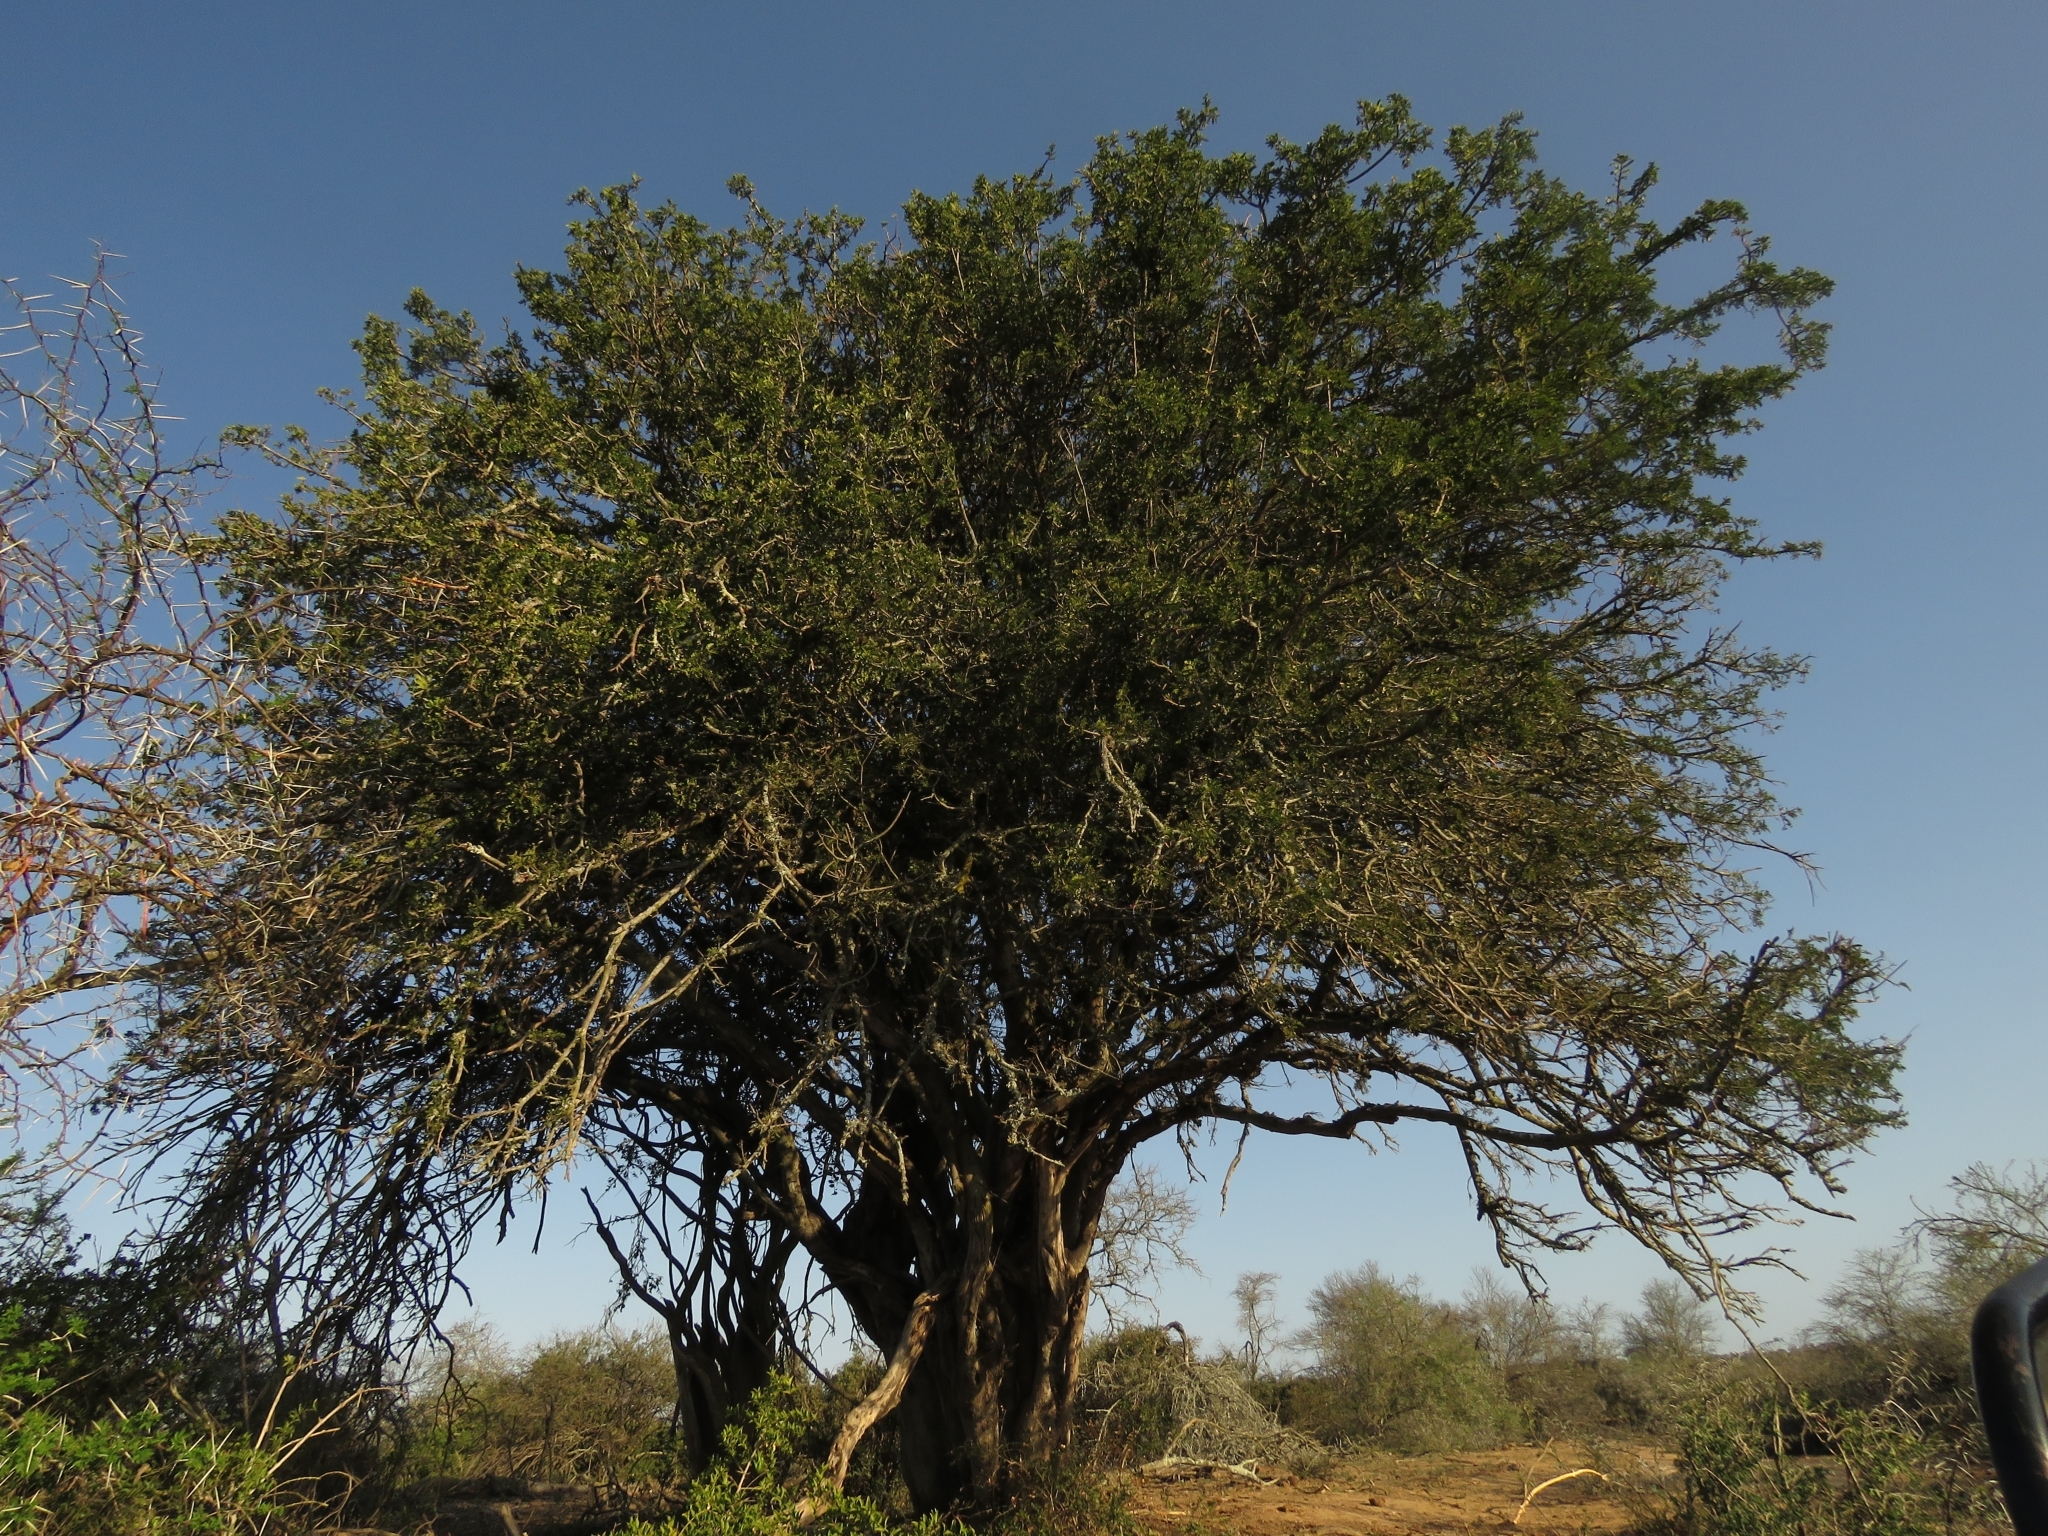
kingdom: Plantae
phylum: Tracheophyta
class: Magnoliopsida
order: Fabales
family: Fabaceae
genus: Schotia
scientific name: Schotia afra
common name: Hottentot's bean
